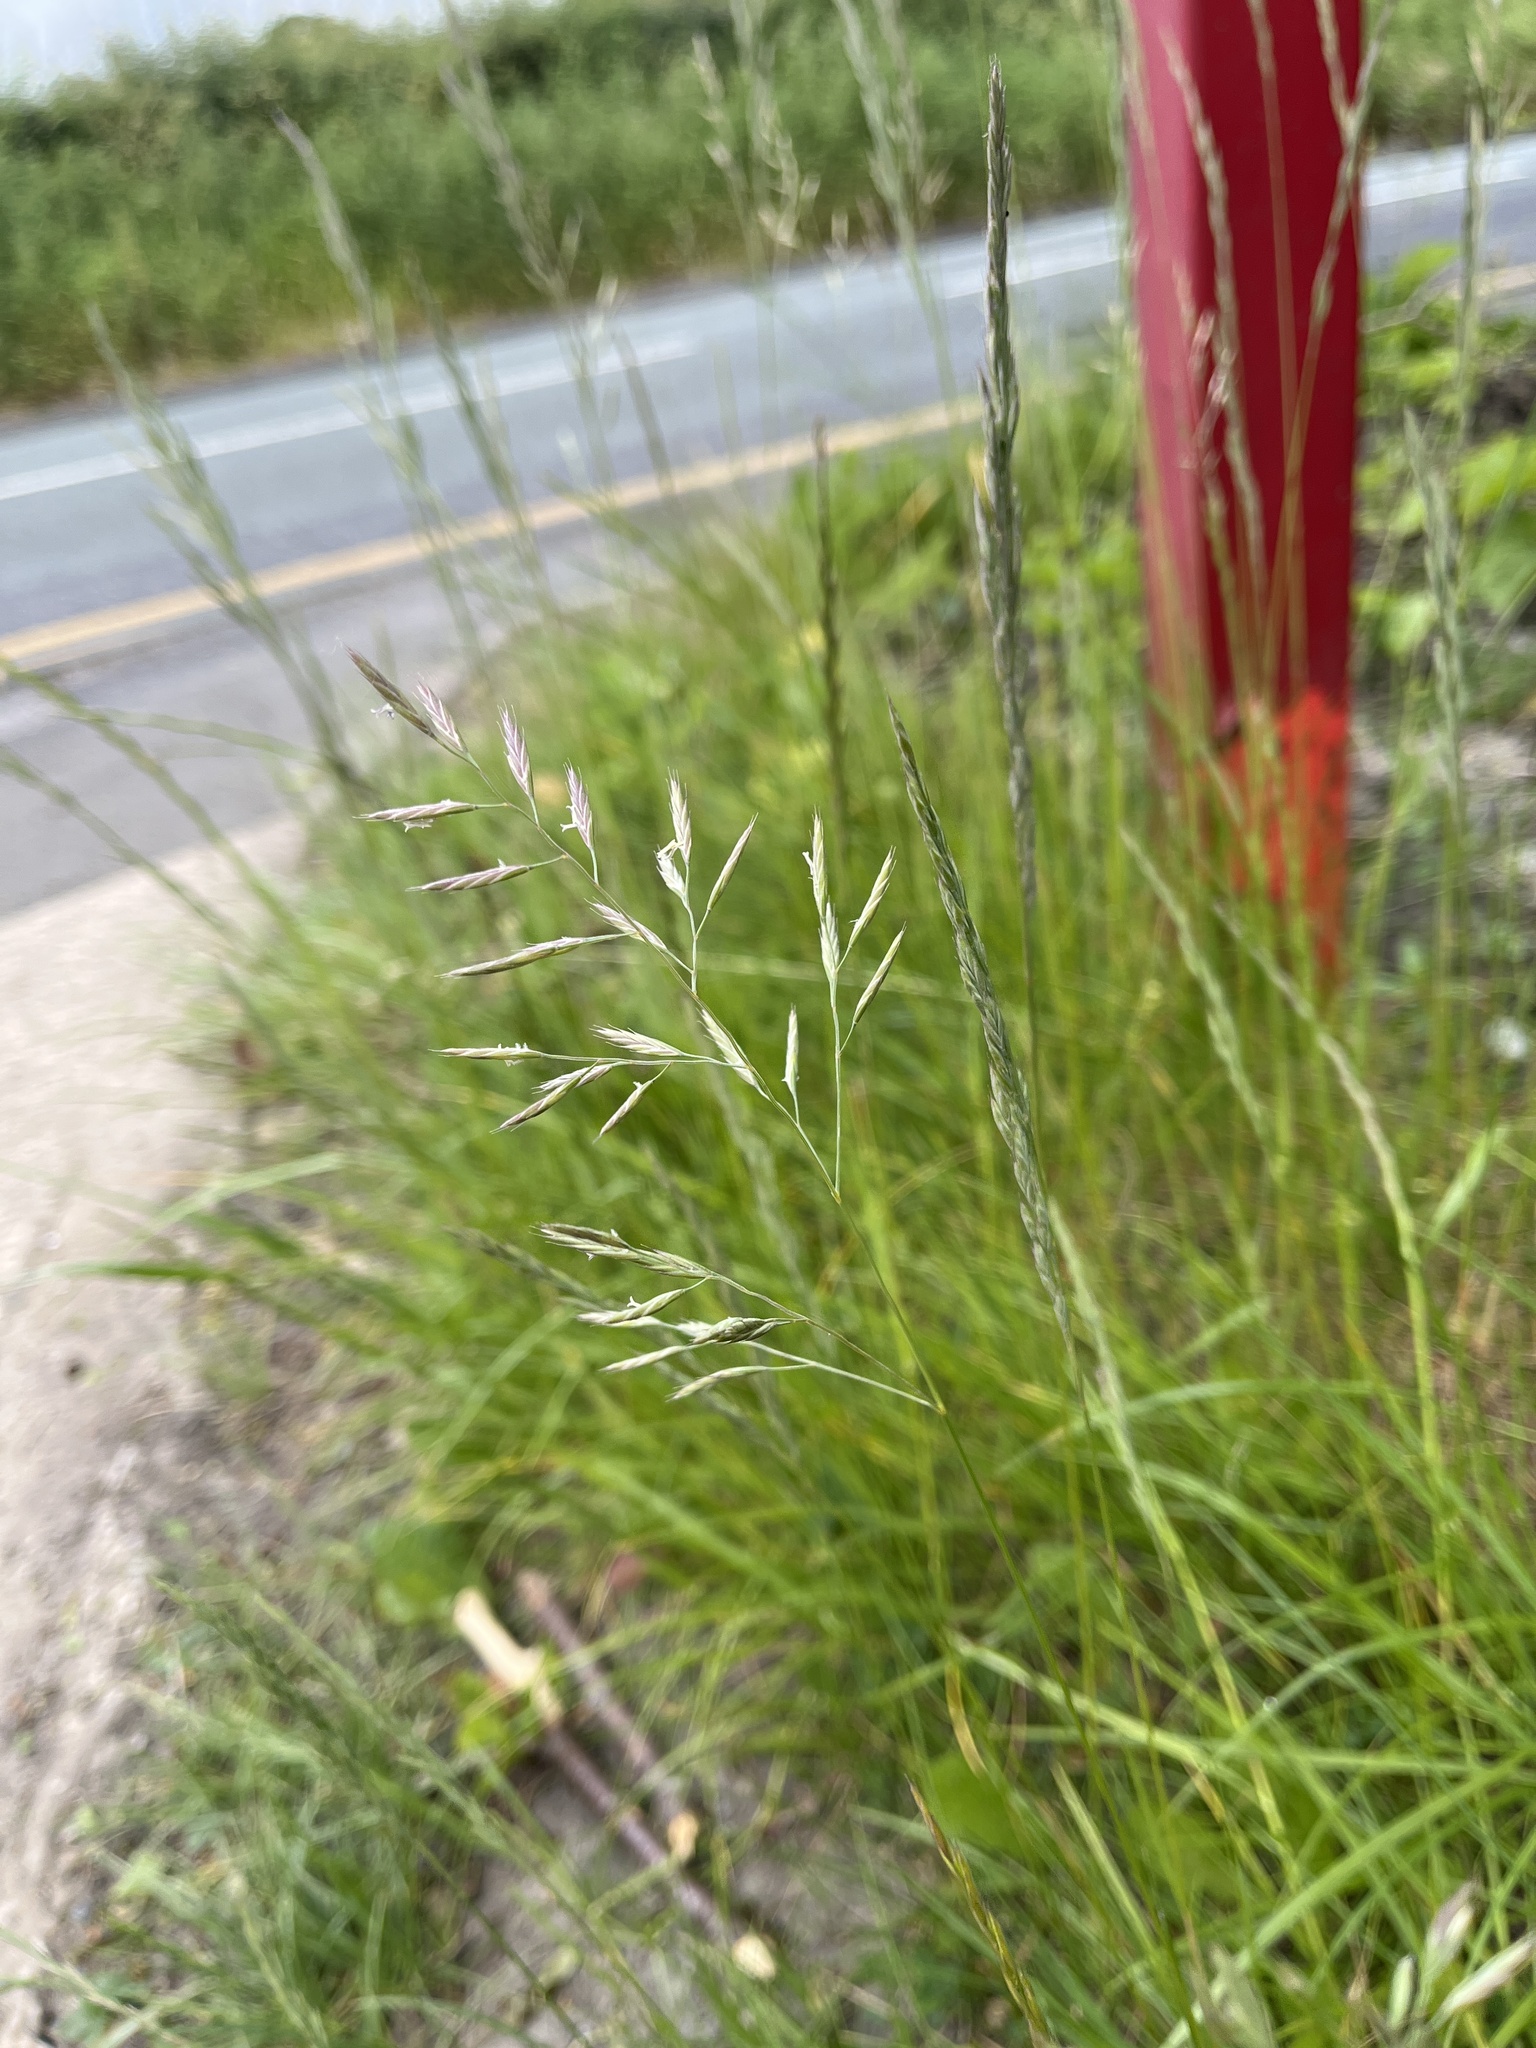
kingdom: Plantae
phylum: Tracheophyta
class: Liliopsida
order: Poales
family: Poaceae
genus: Festuca
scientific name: Festuca rubra
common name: Red fescue
